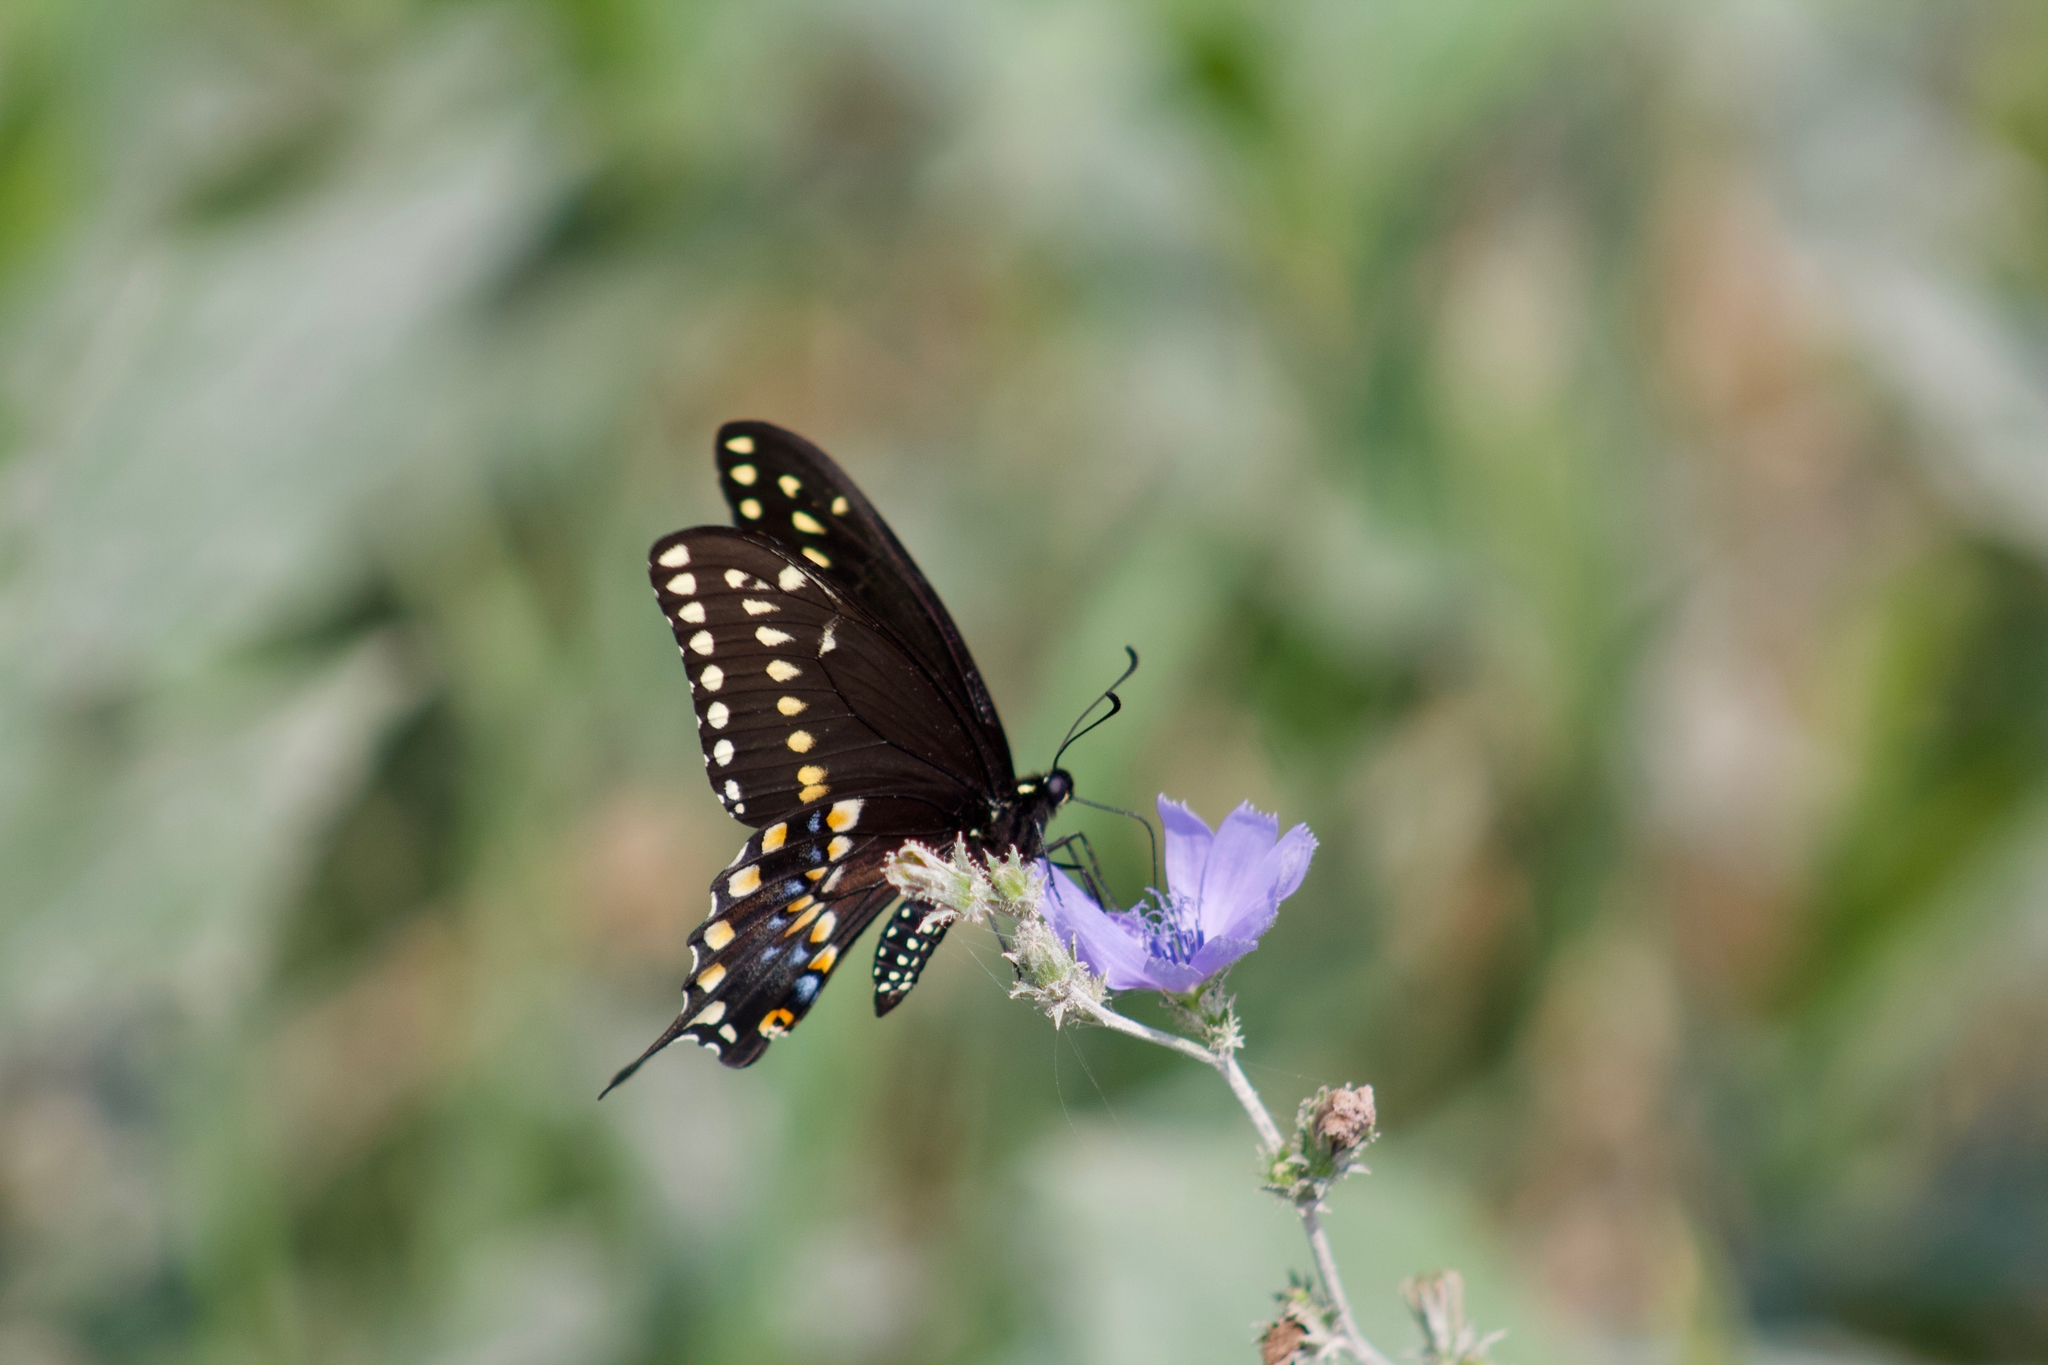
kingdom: Animalia
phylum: Arthropoda
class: Insecta
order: Lepidoptera
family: Papilionidae
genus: Papilio
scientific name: Papilio polyxenes
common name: Black swallowtail
